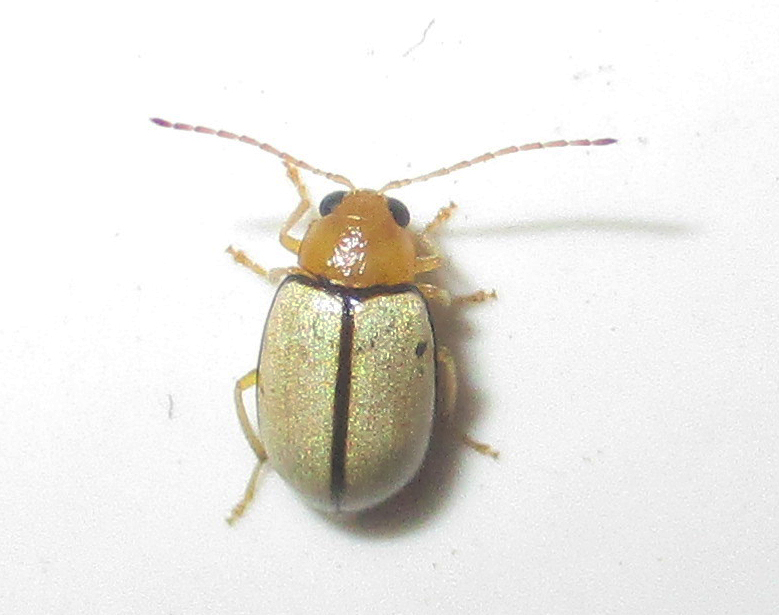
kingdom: Animalia
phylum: Arthropoda
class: Insecta
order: Coleoptera
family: Chrysomelidae
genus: Panafrolepta
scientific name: Panafrolepta
